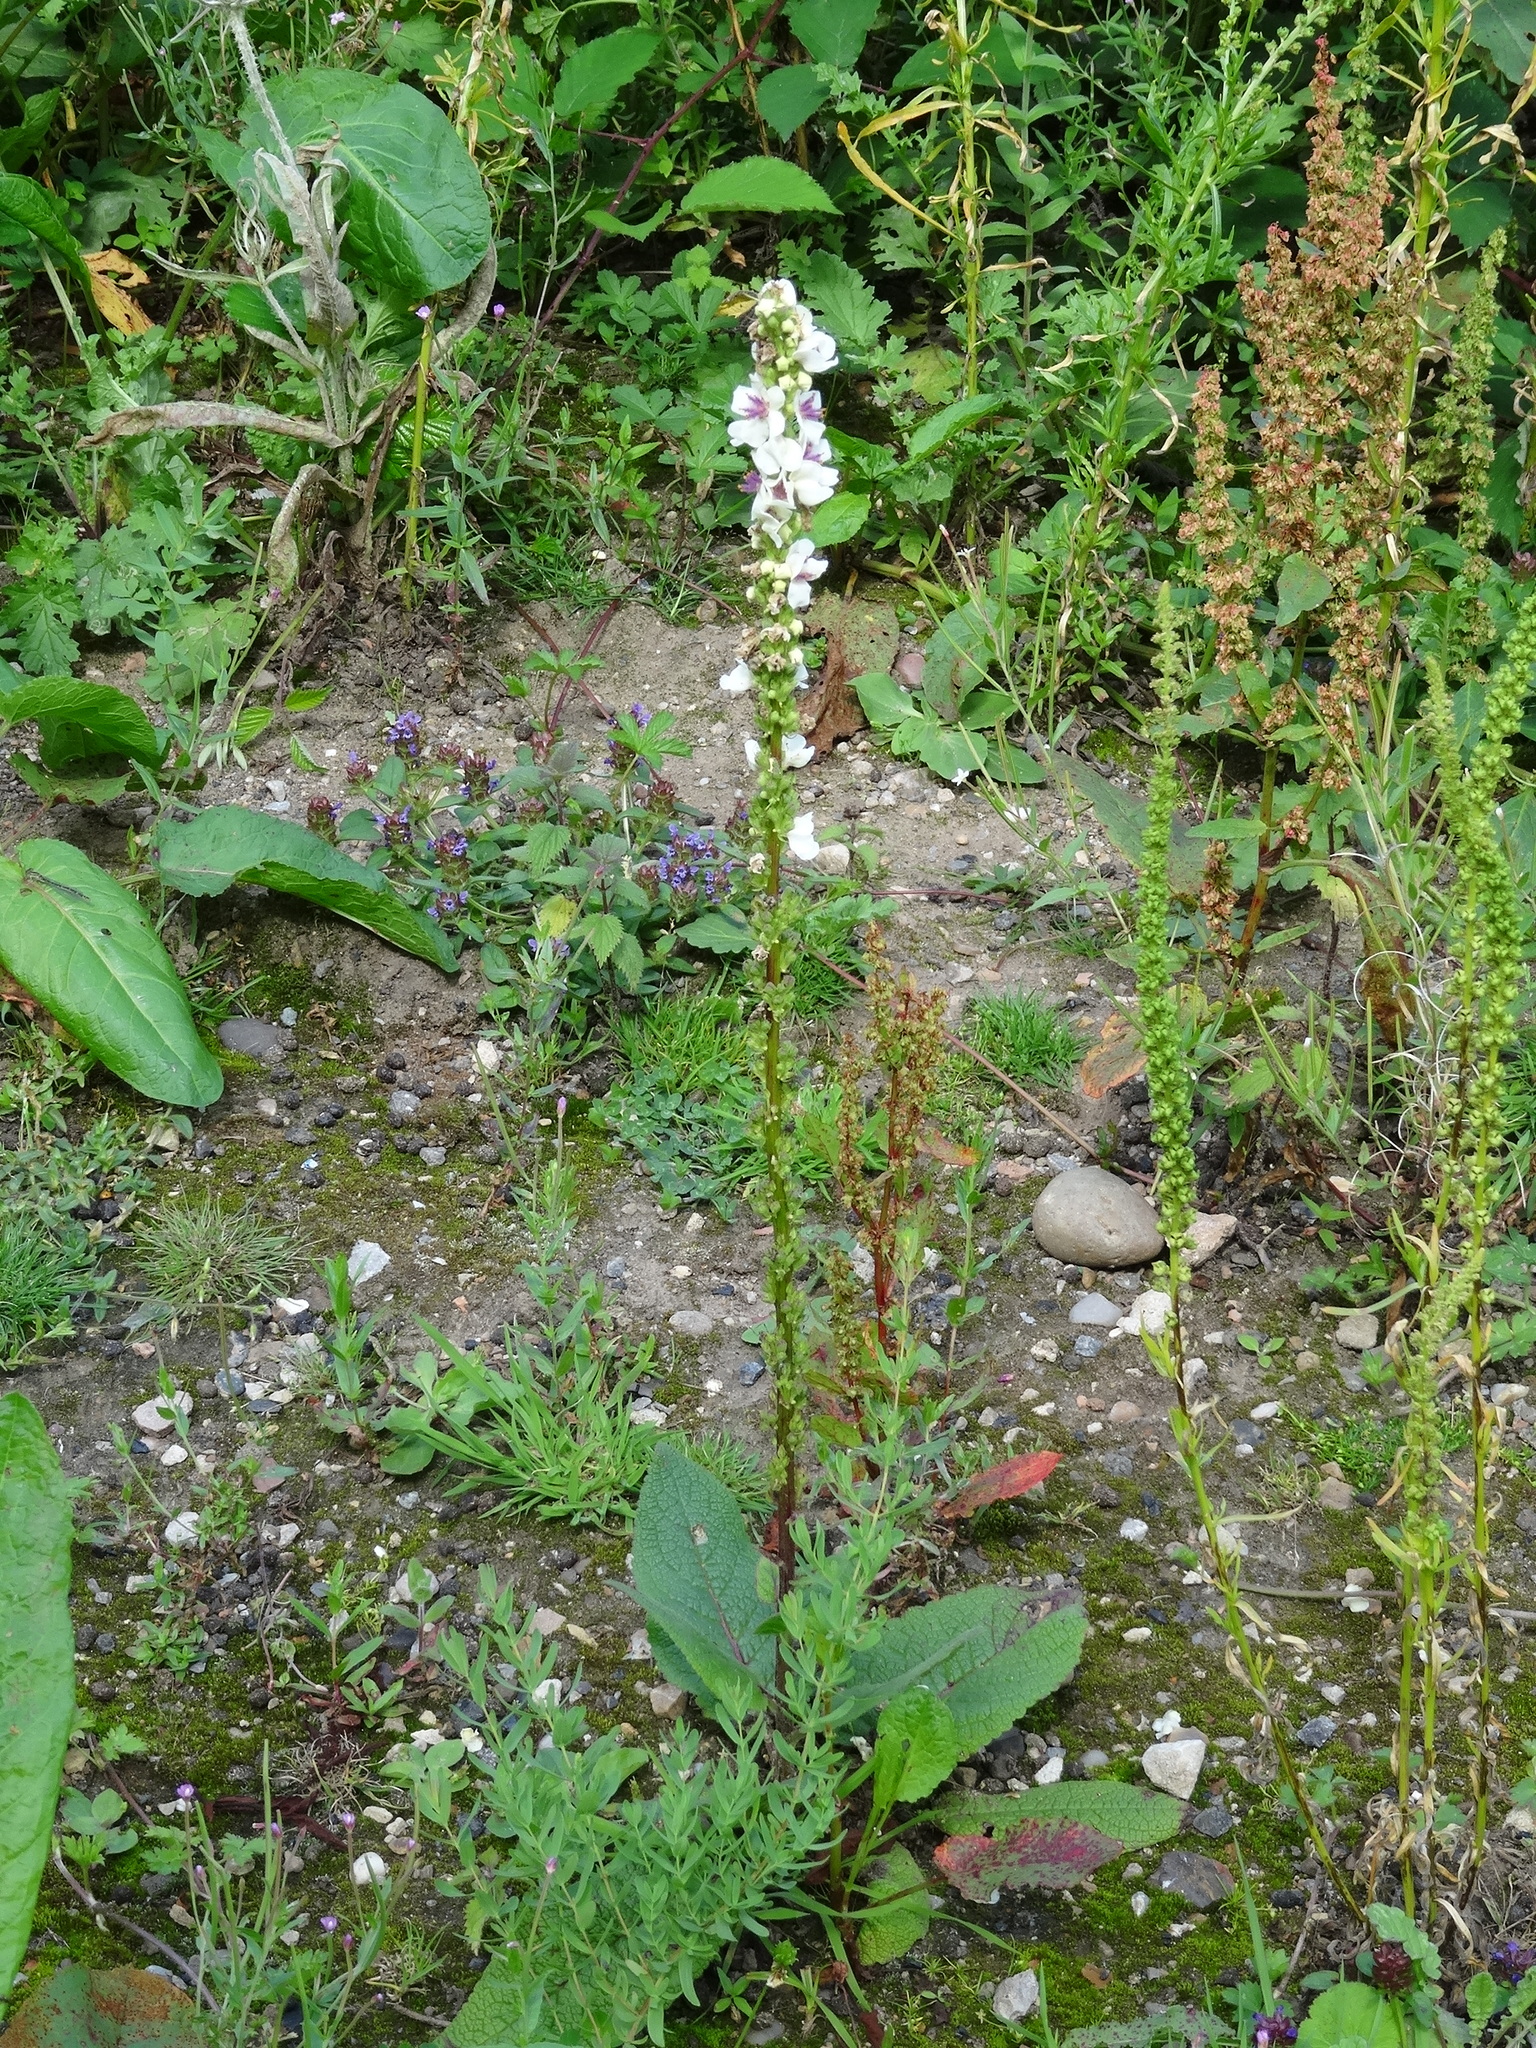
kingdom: Plantae
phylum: Tracheophyta
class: Magnoliopsida
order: Lamiales
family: Scrophulariaceae
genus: Verbascum
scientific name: Verbascum nigrum
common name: Dark mullein
